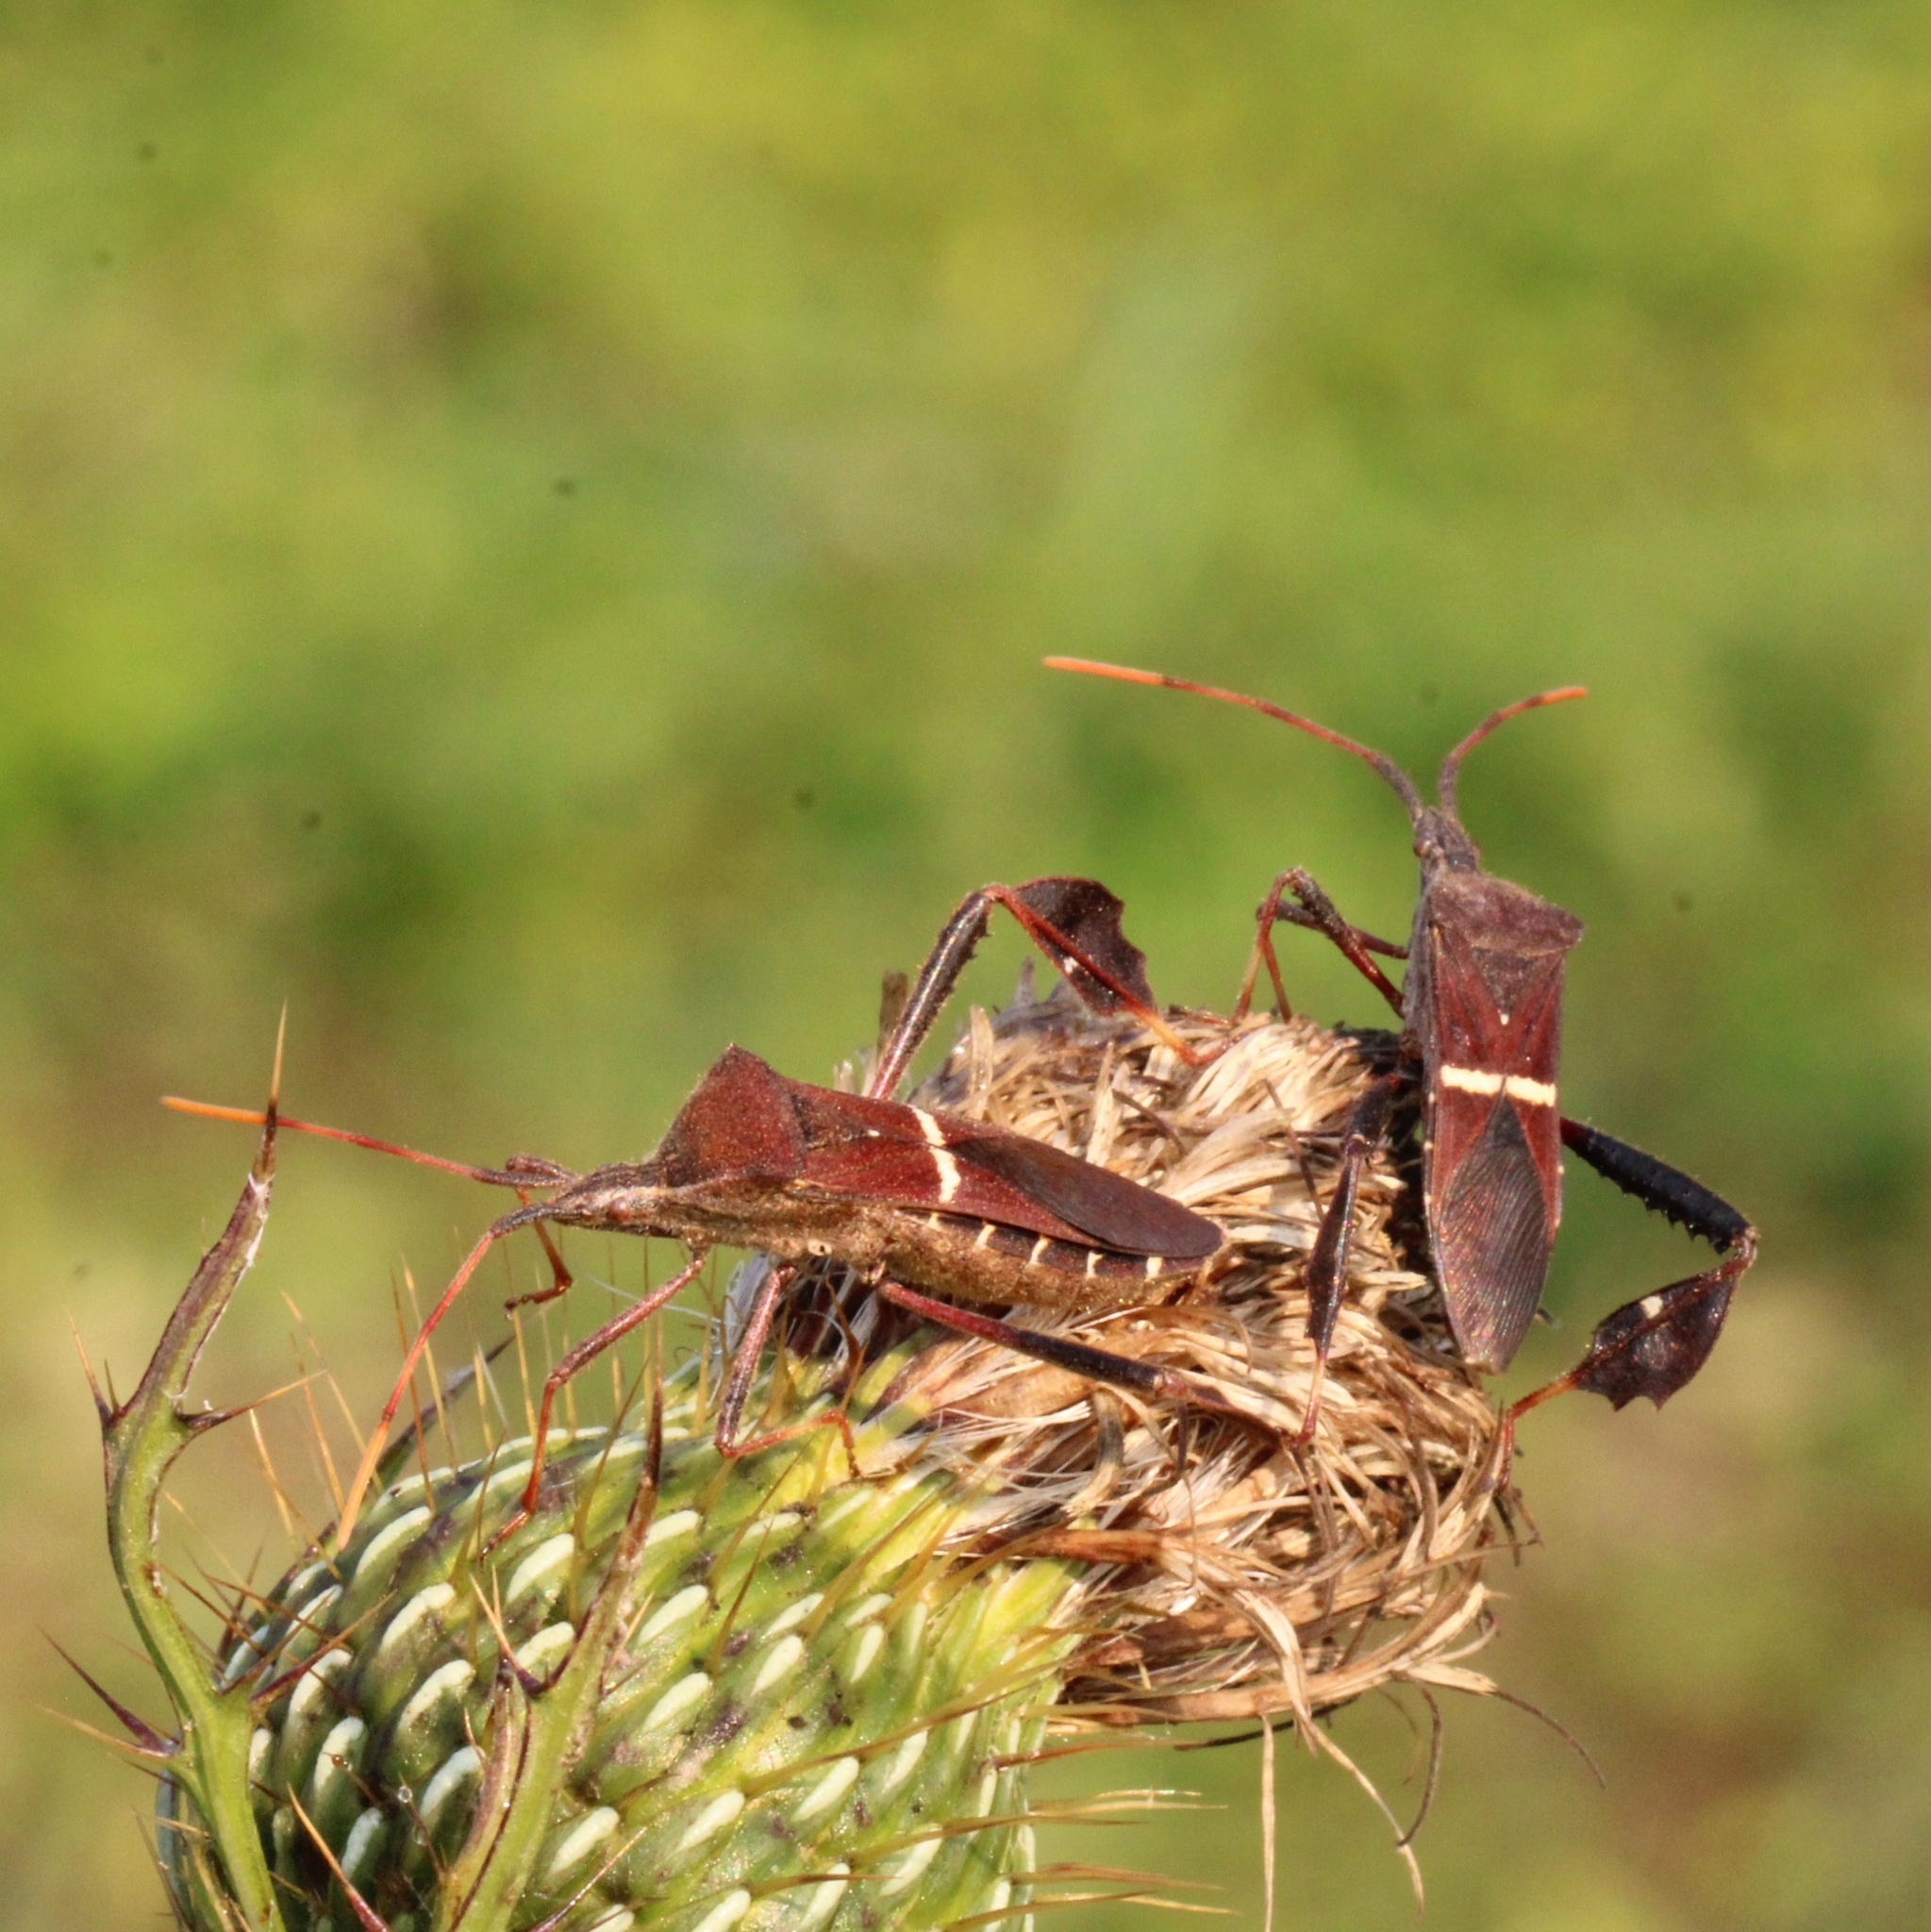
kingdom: Animalia
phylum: Arthropoda
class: Insecta
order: Hemiptera
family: Coreidae
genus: Leptoglossus
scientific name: Leptoglossus phyllopus
